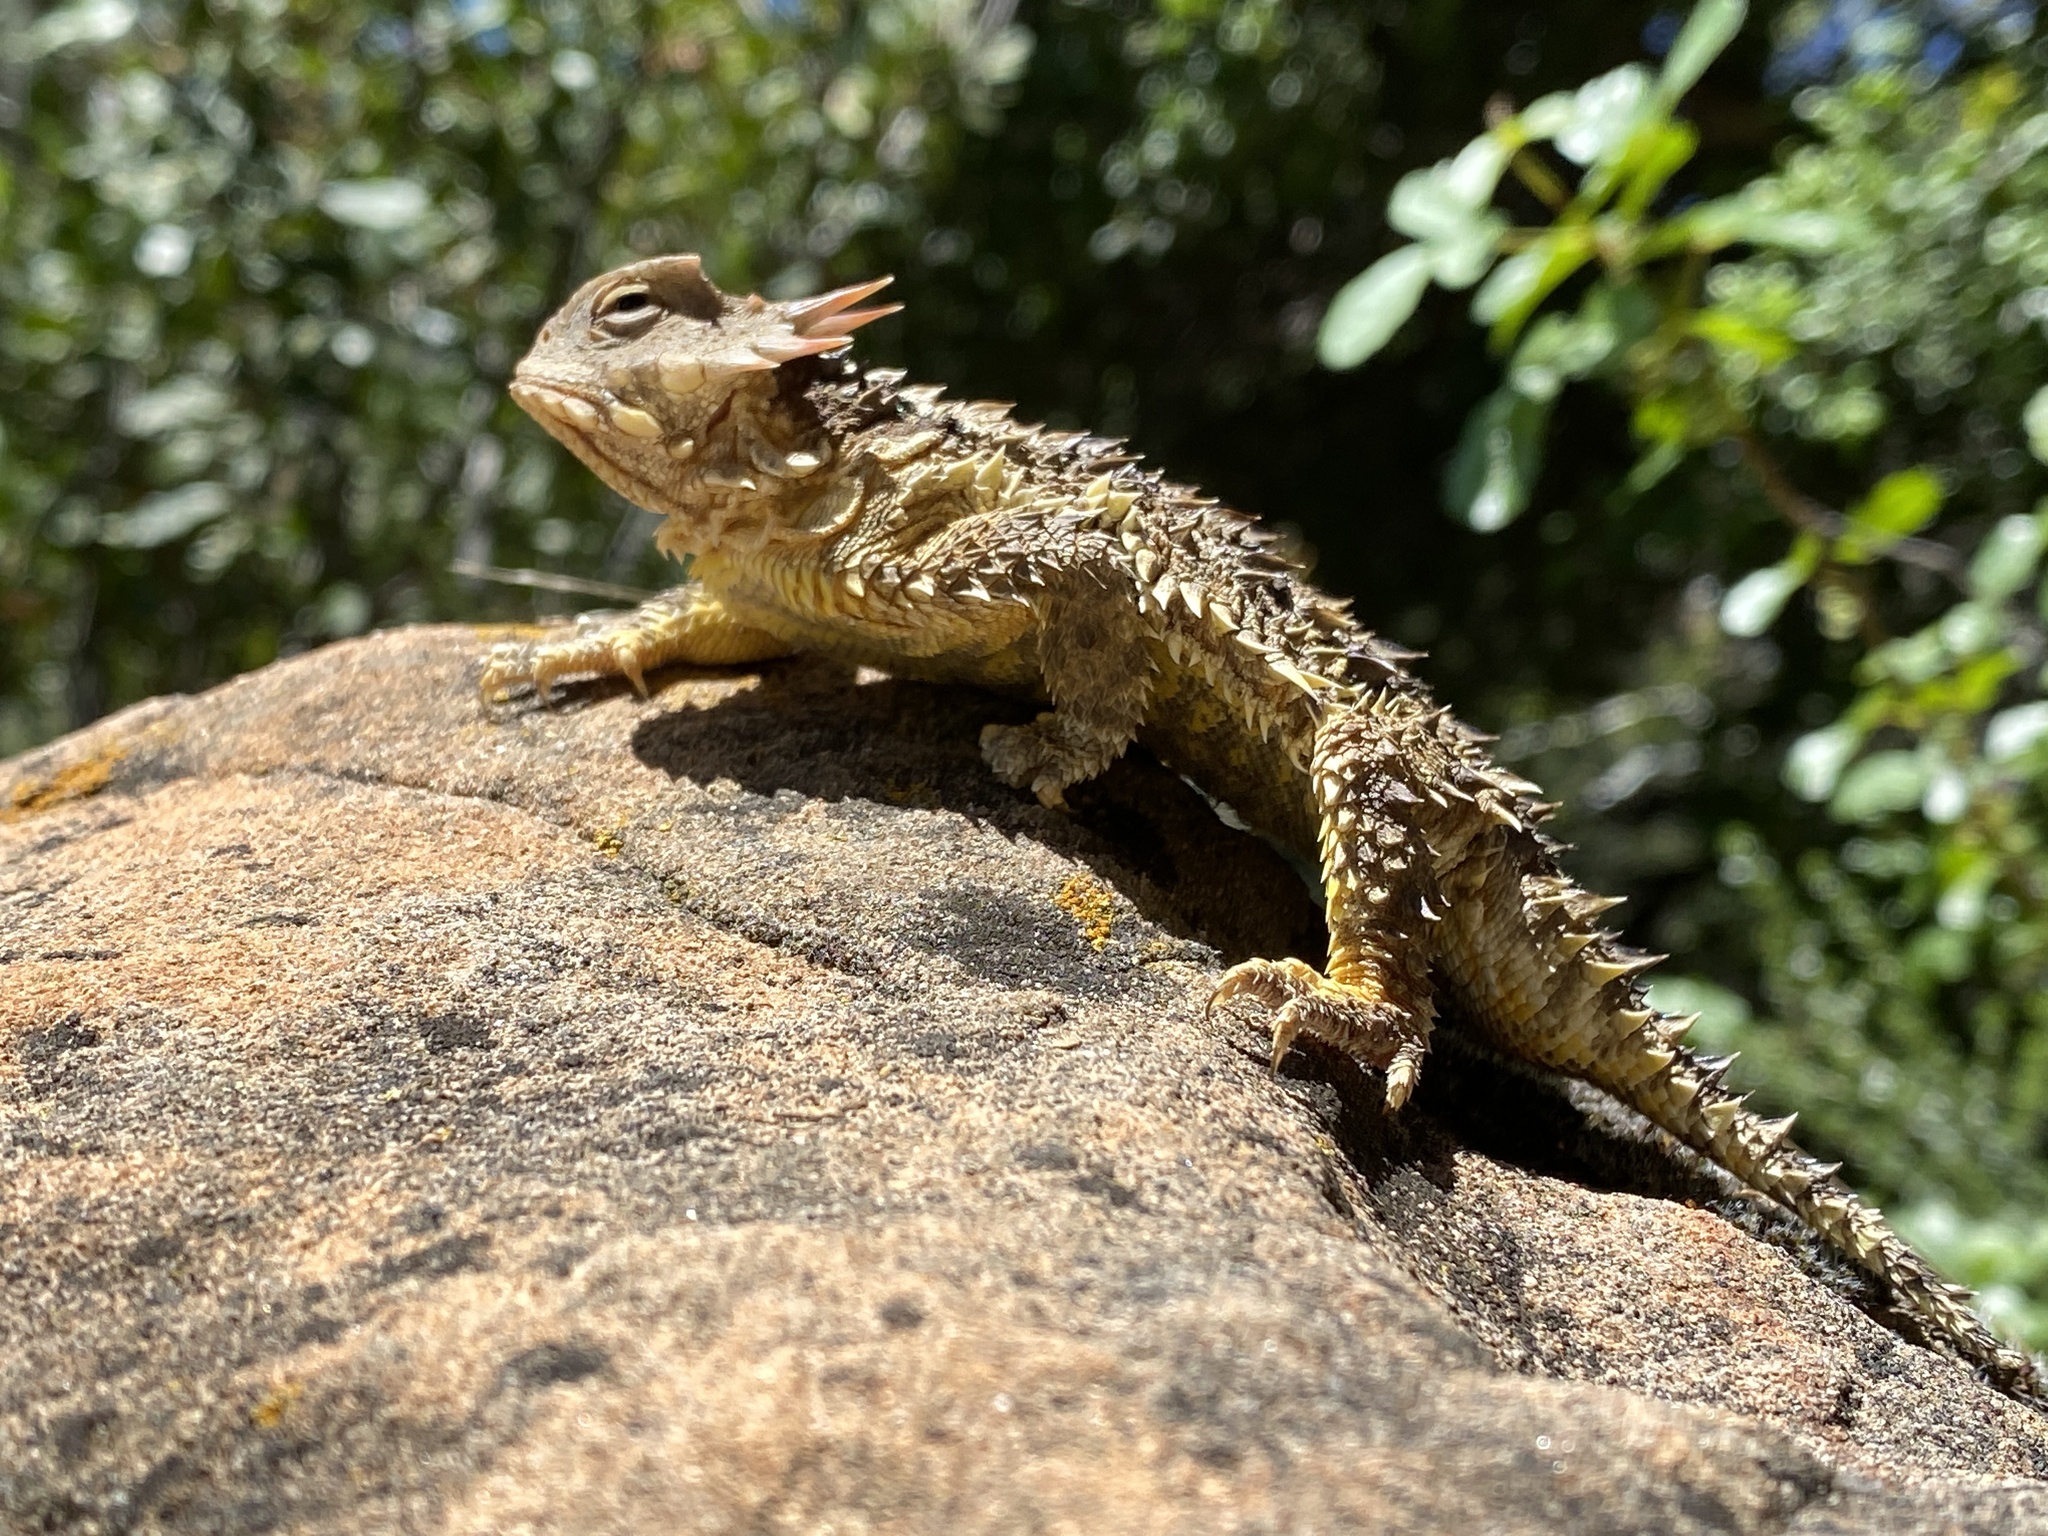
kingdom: Animalia
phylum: Chordata
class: Squamata
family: Phrynosomatidae
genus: Phrynosoma
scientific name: Phrynosoma blainvillii
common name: San diego horned lizard
